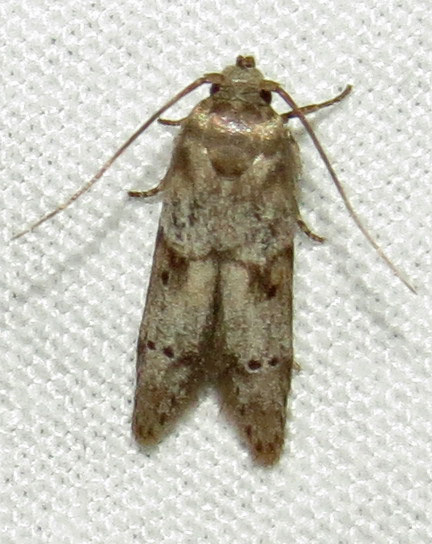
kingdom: Animalia
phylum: Arthropoda
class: Insecta
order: Lepidoptera
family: Blastobasidae
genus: Blastobasis
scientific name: Blastobasis glandulella
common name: Acorn moth
